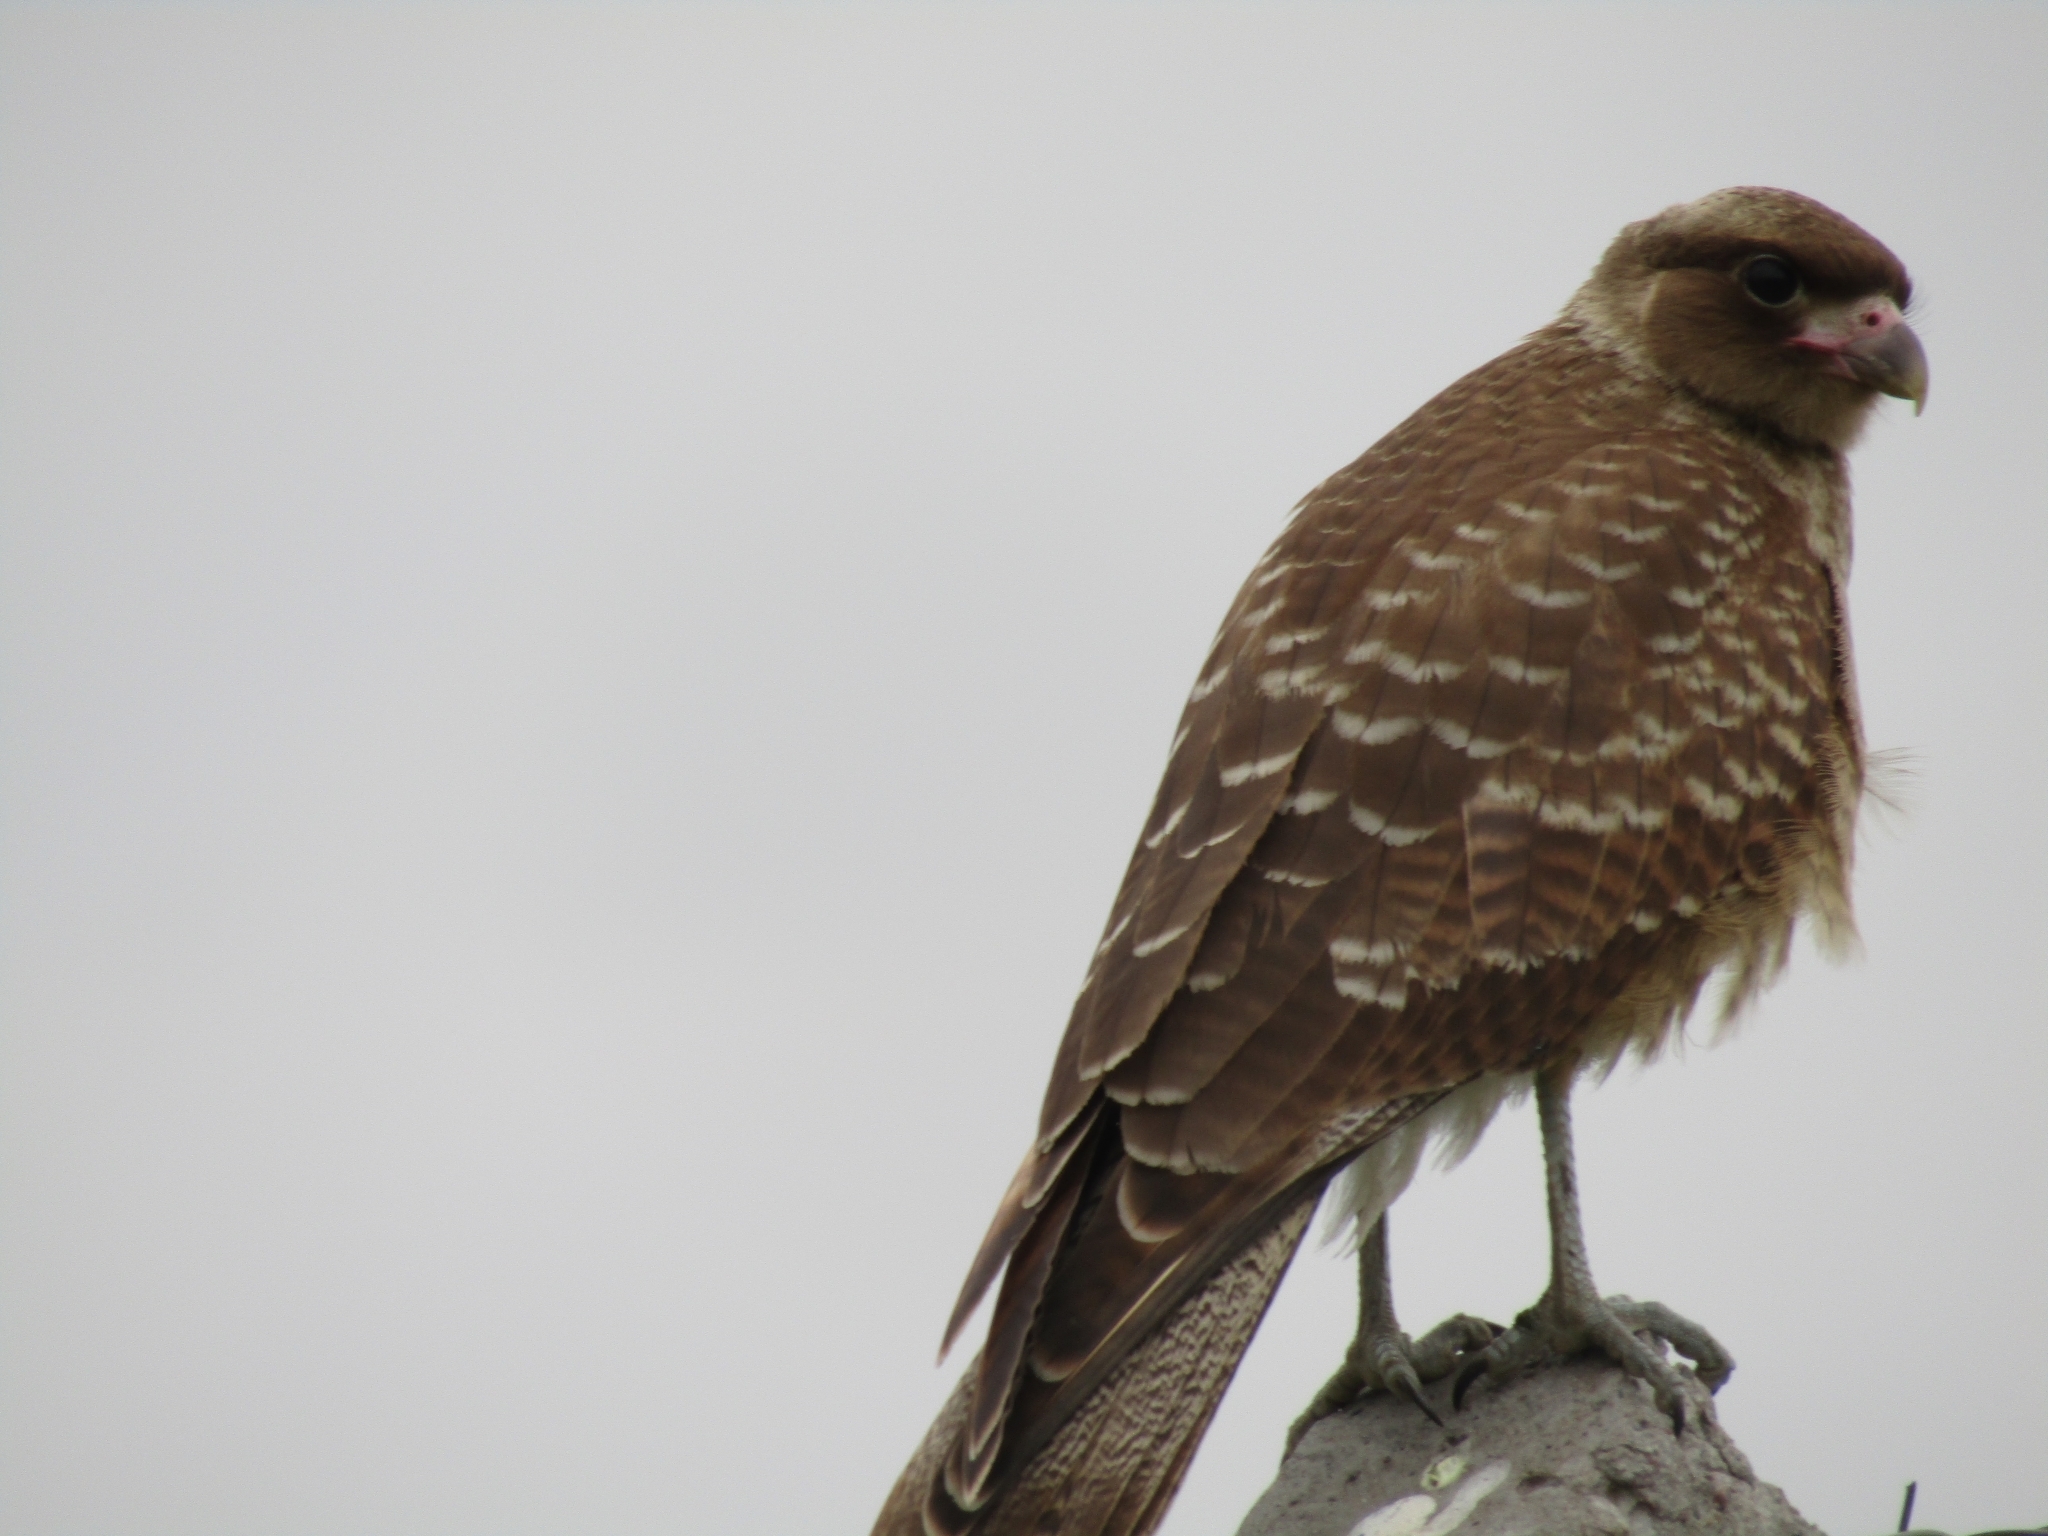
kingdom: Animalia
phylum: Chordata
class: Aves
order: Falconiformes
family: Falconidae
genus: Daptrius
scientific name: Daptrius
